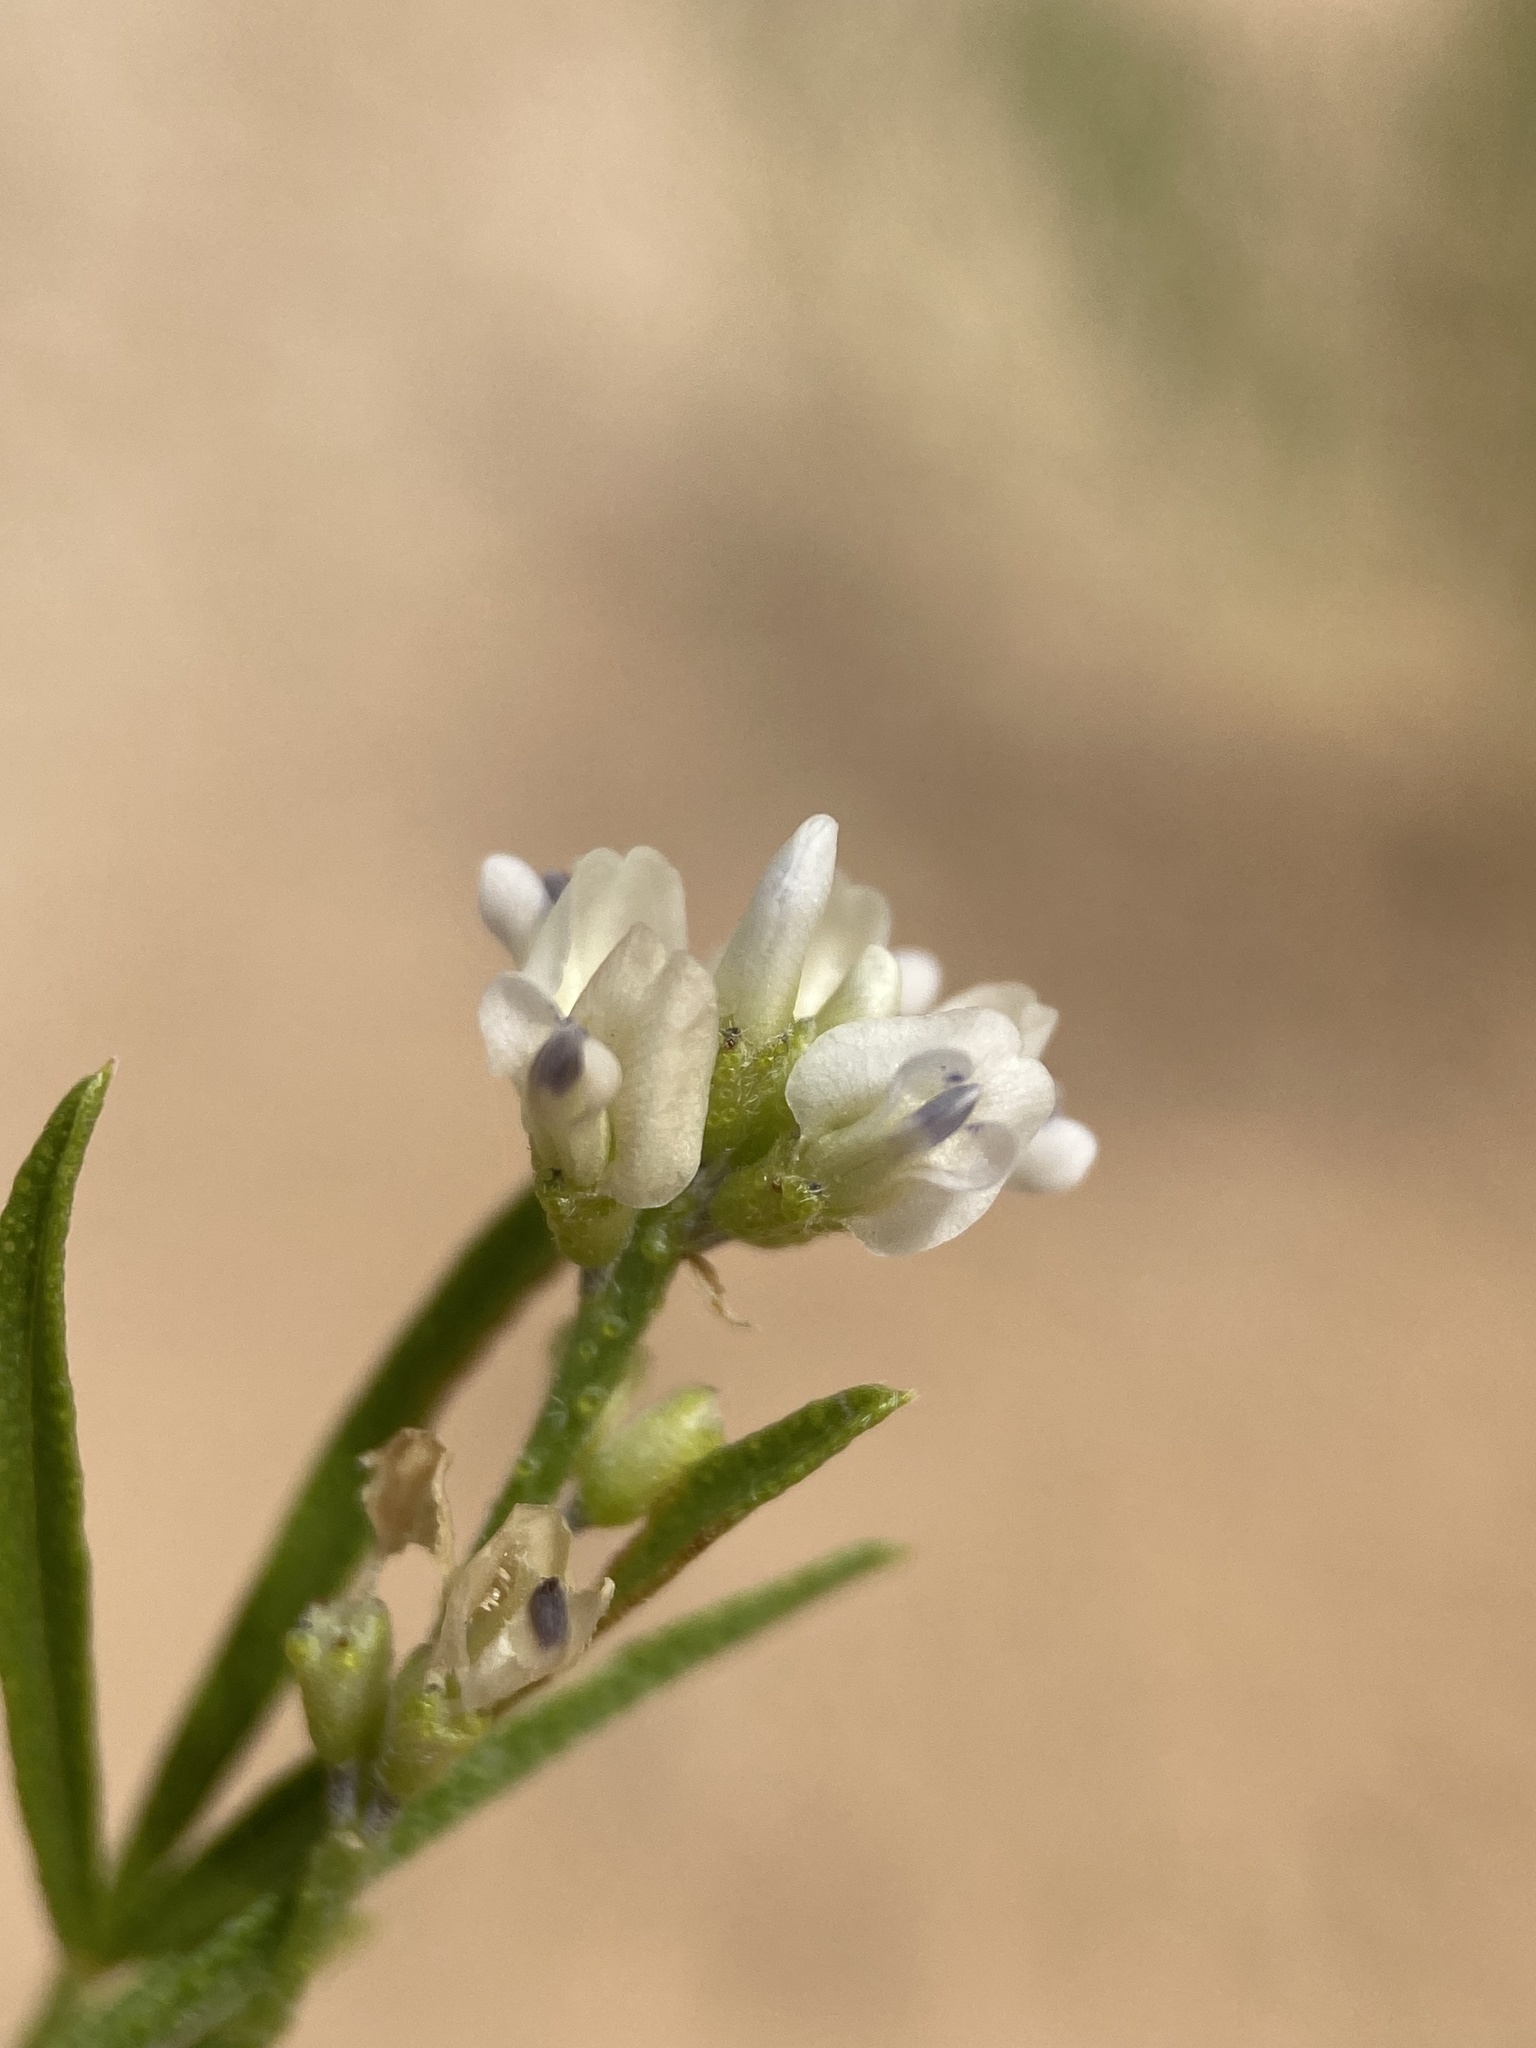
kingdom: Plantae
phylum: Tracheophyta
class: Magnoliopsida
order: Fabales
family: Fabaceae
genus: Ladeania
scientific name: Ladeania lanceolata
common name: Dune scurf-pea
